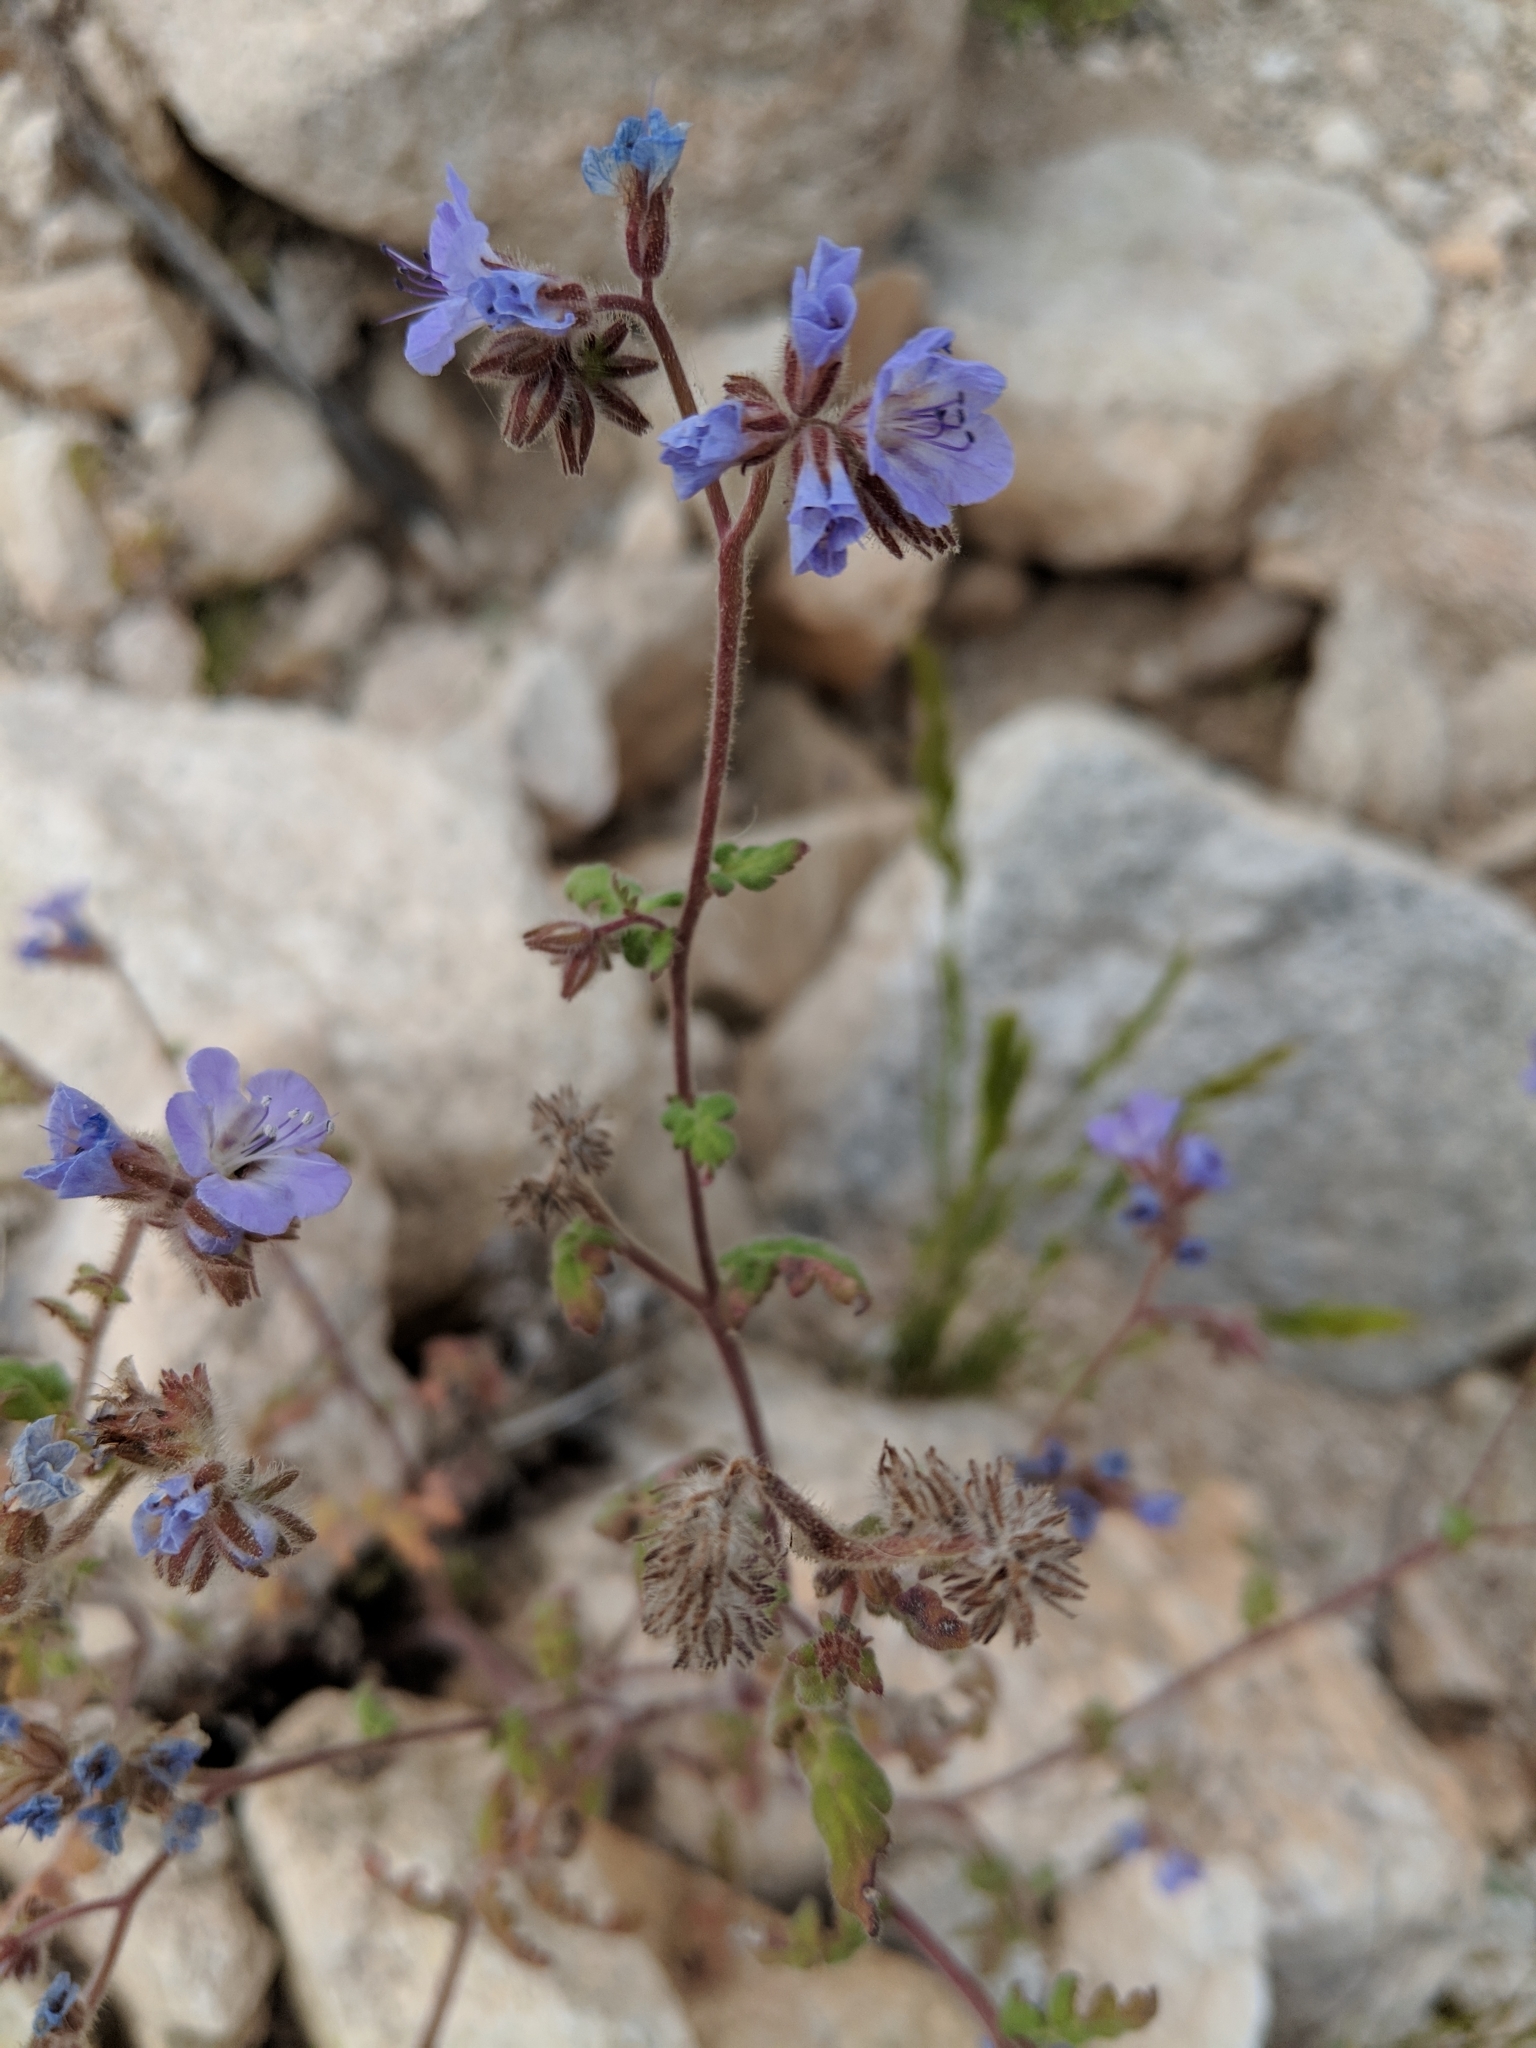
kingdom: Plantae
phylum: Tracheophyta
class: Magnoliopsida
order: Boraginales
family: Hydrophyllaceae
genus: Phacelia
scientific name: Phacelia distans
